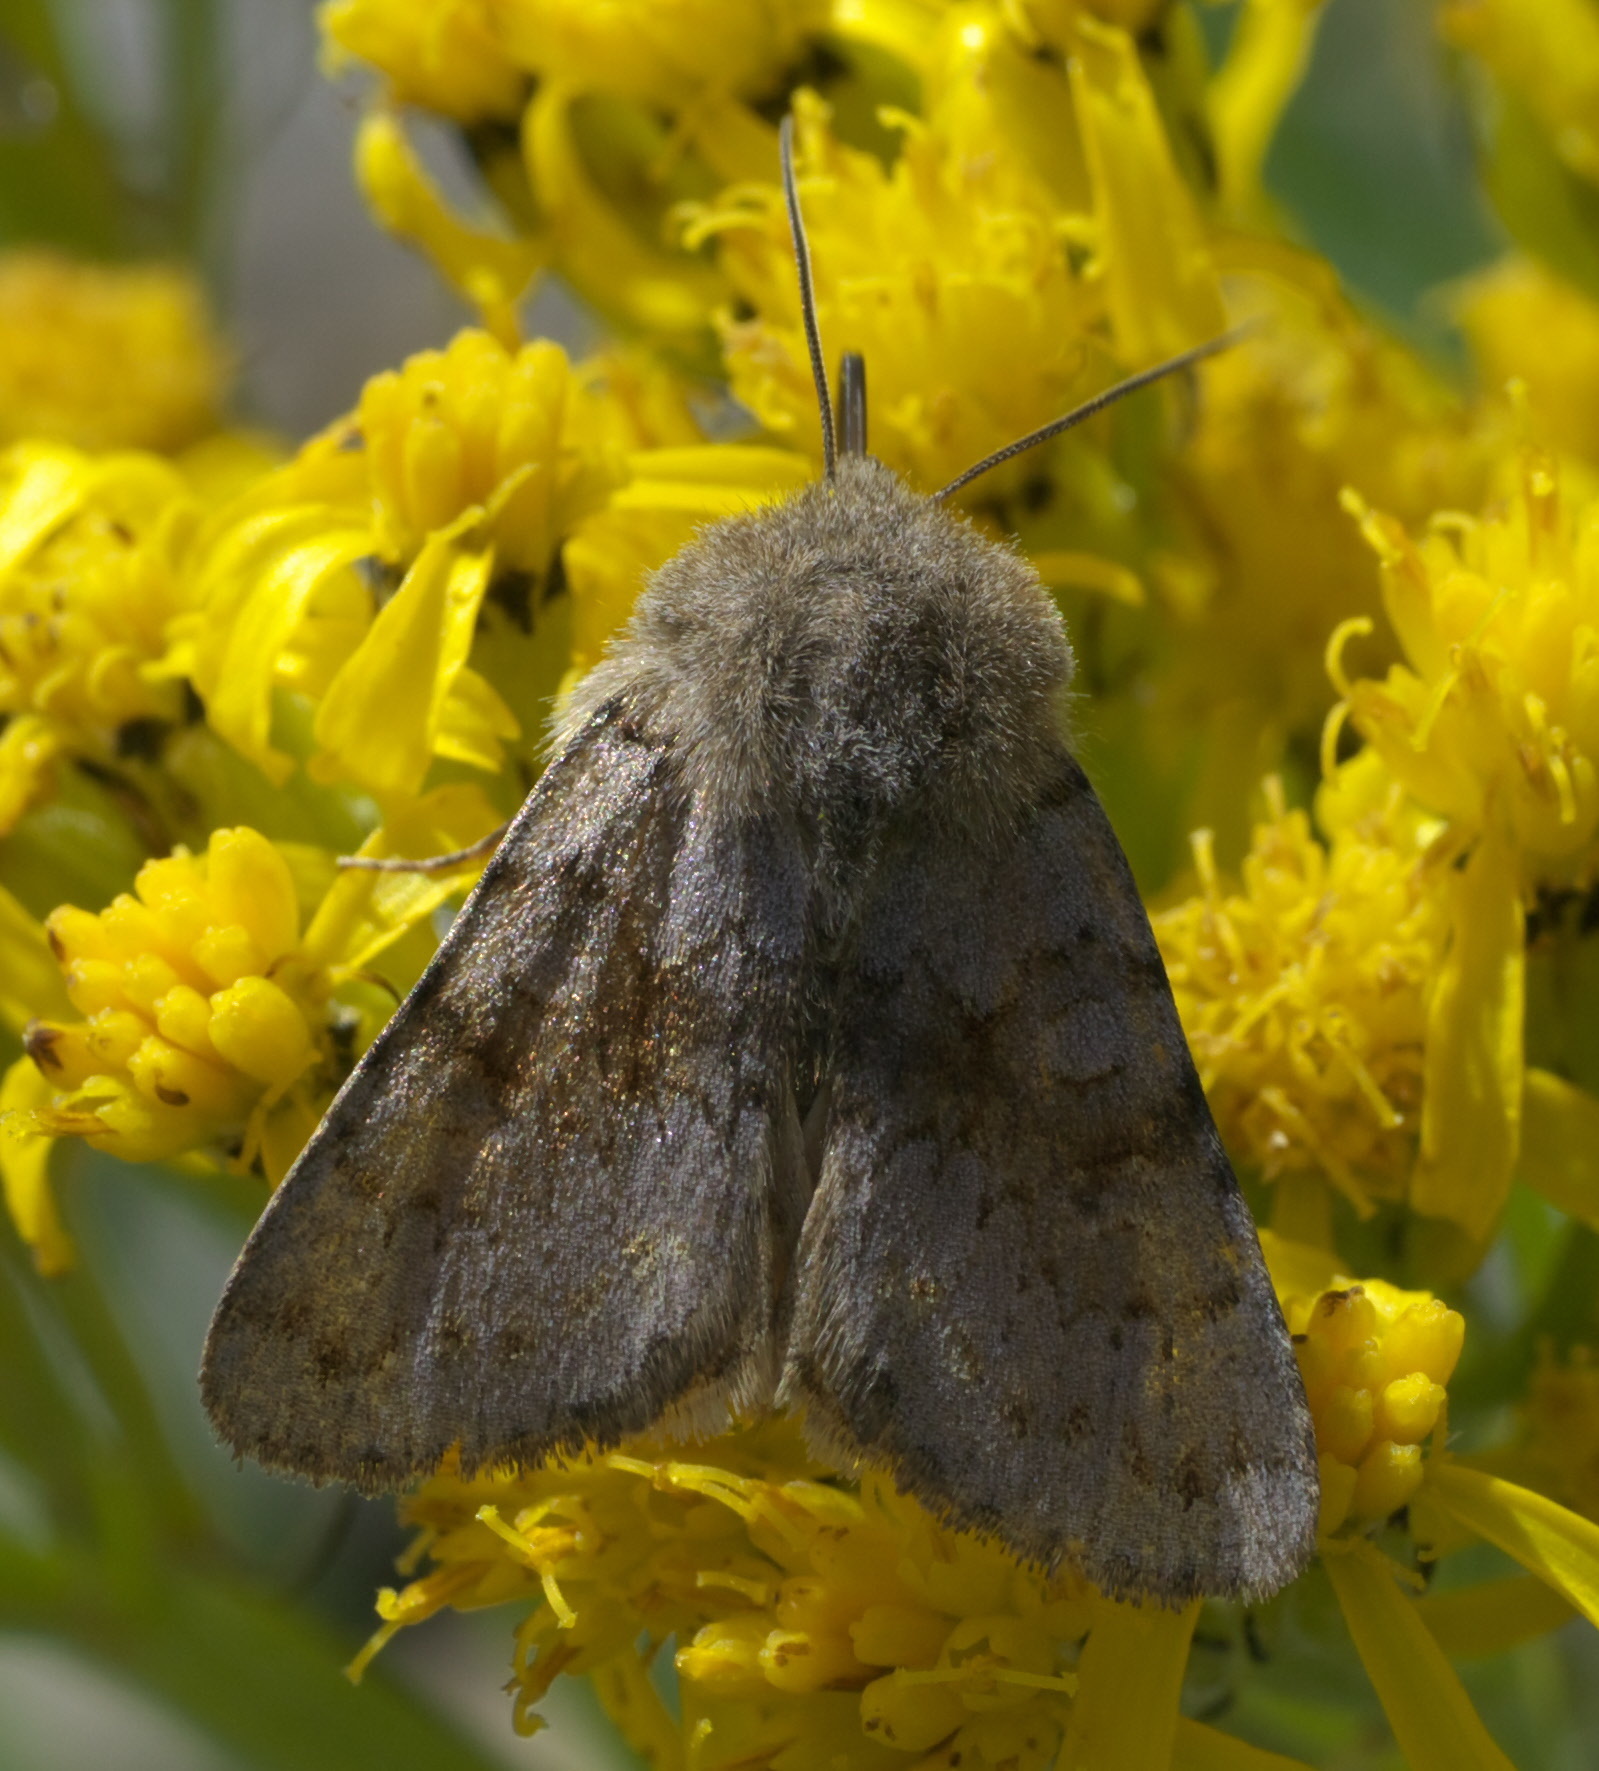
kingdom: Animalia
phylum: Arthropoda
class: Insecta
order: Lepidoptera
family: Noctuidae
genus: Lasionycta
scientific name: Lasionycta impingens
